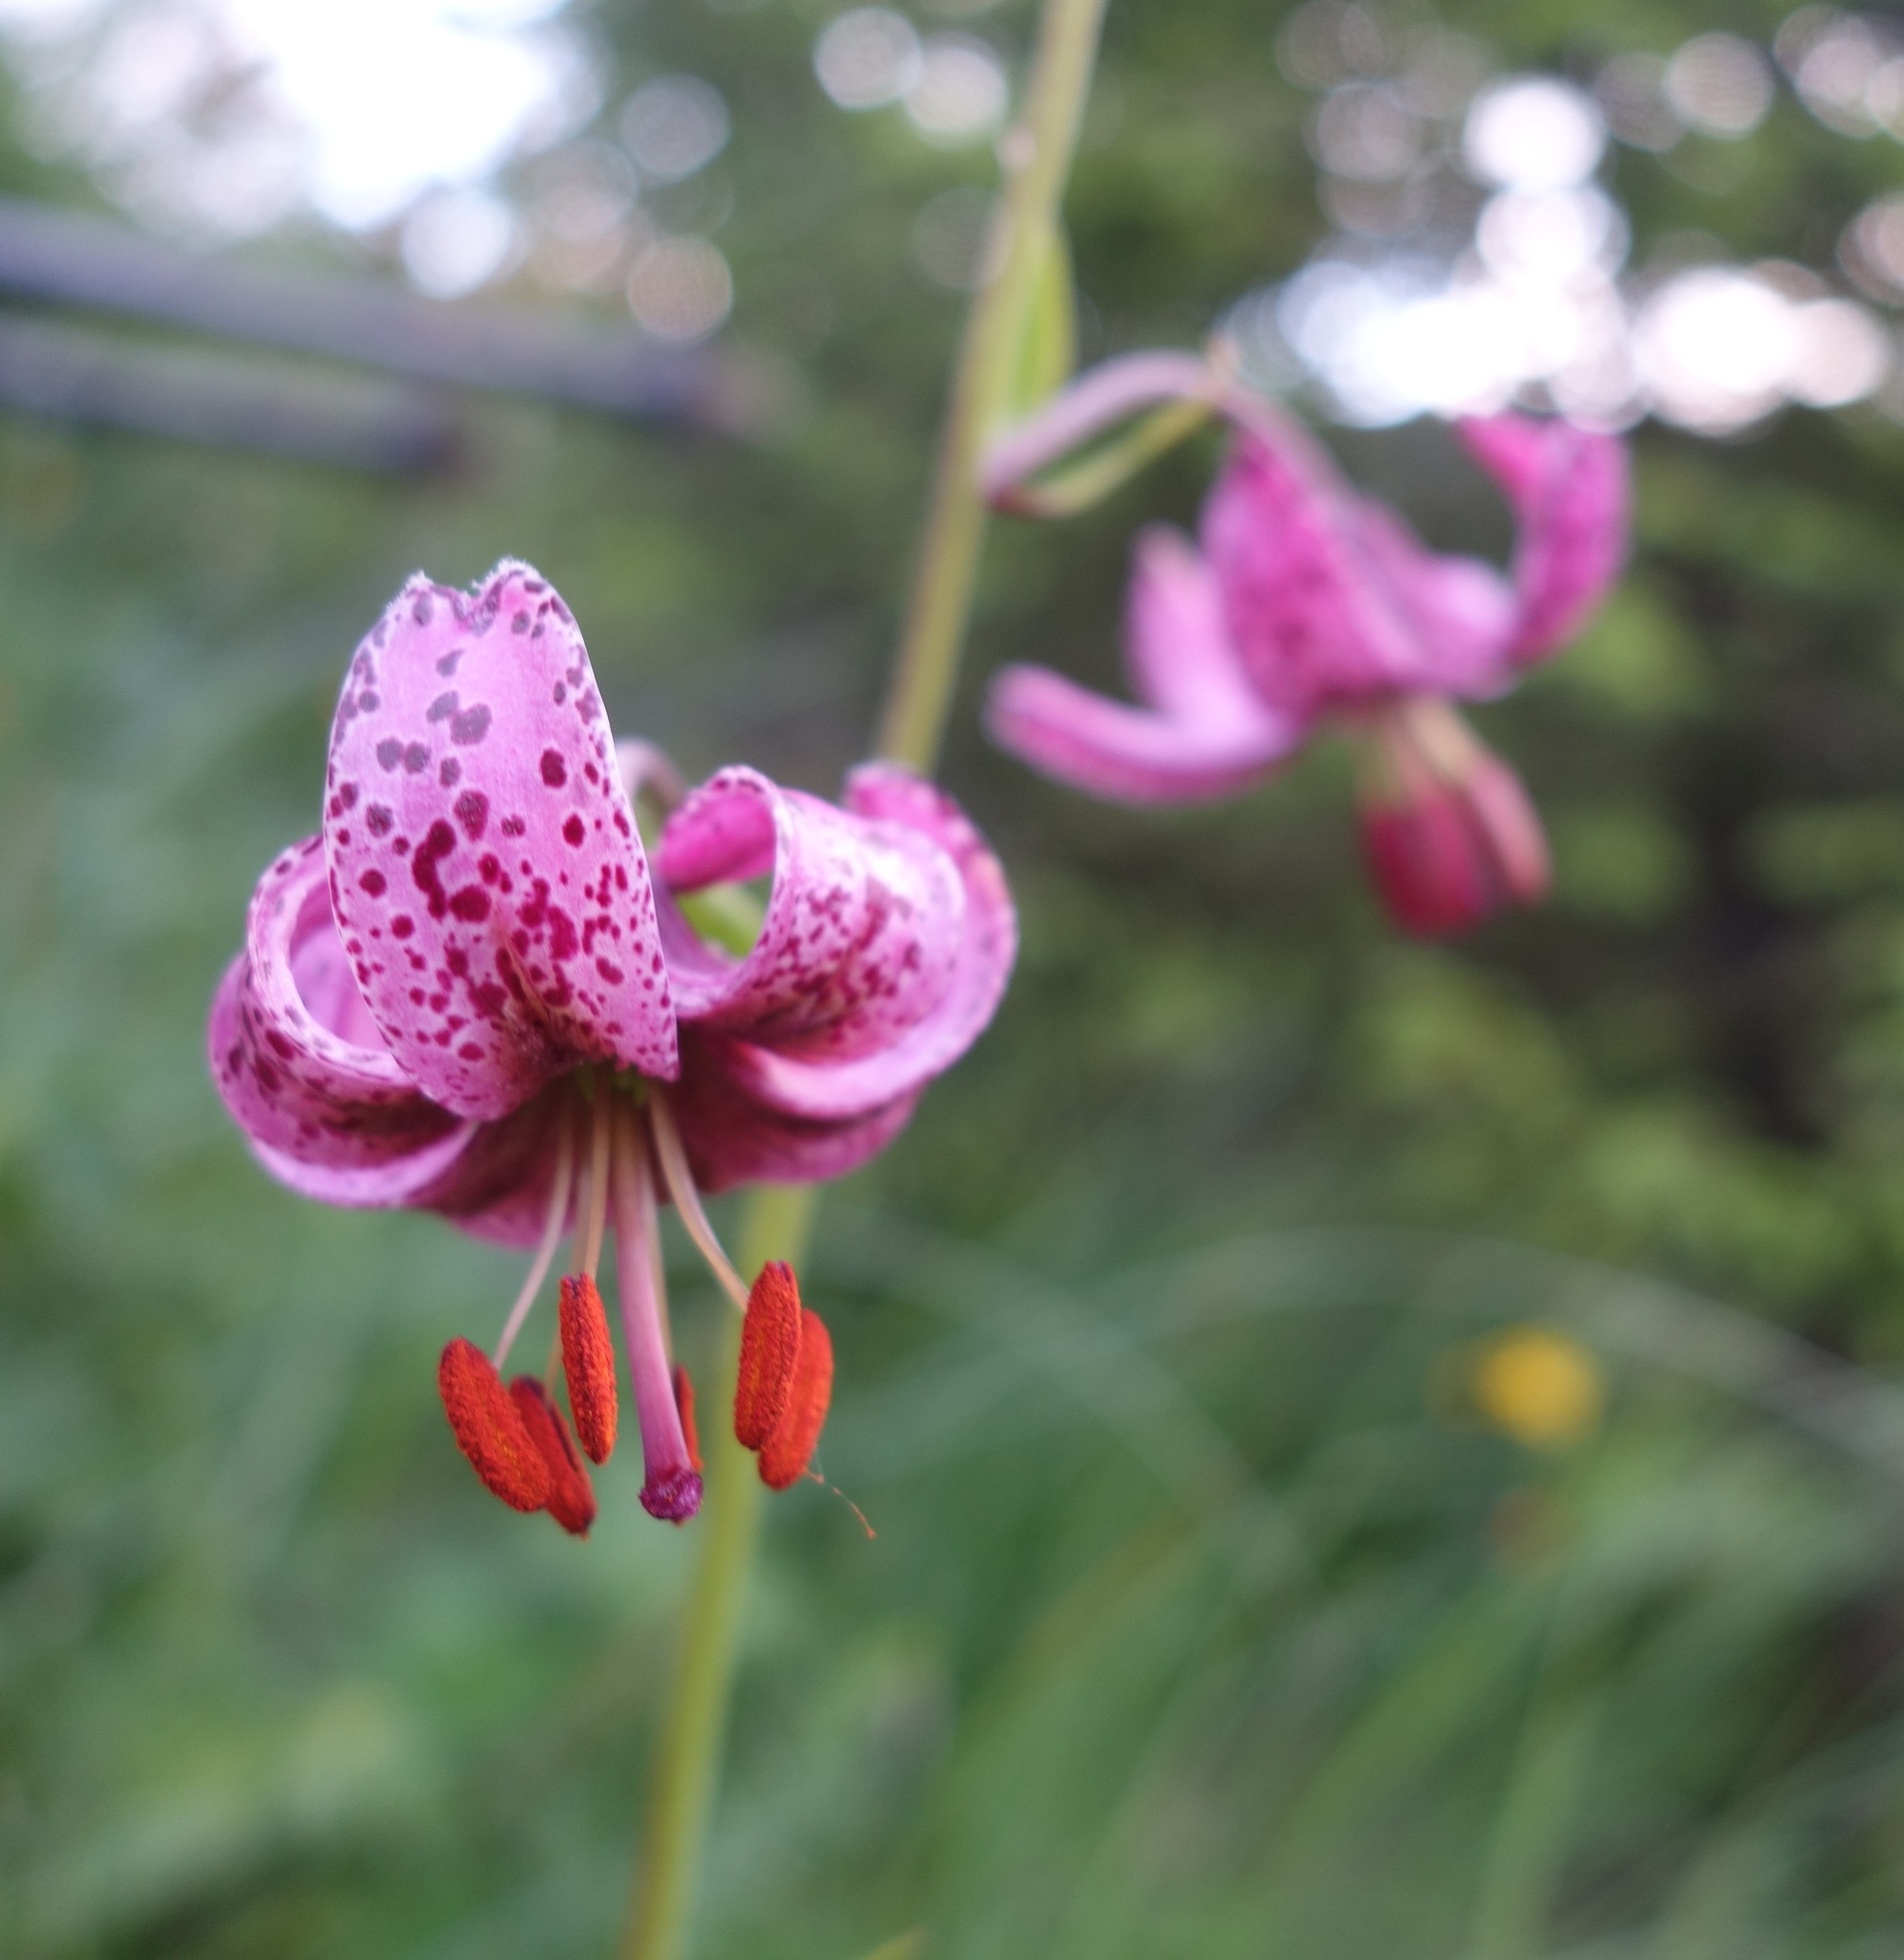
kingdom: Plantae
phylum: Tracheophyta
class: Liliopsida
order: Liliales
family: Liliaceae
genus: Lilium
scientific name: Lilium martagon
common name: Martagon lily
